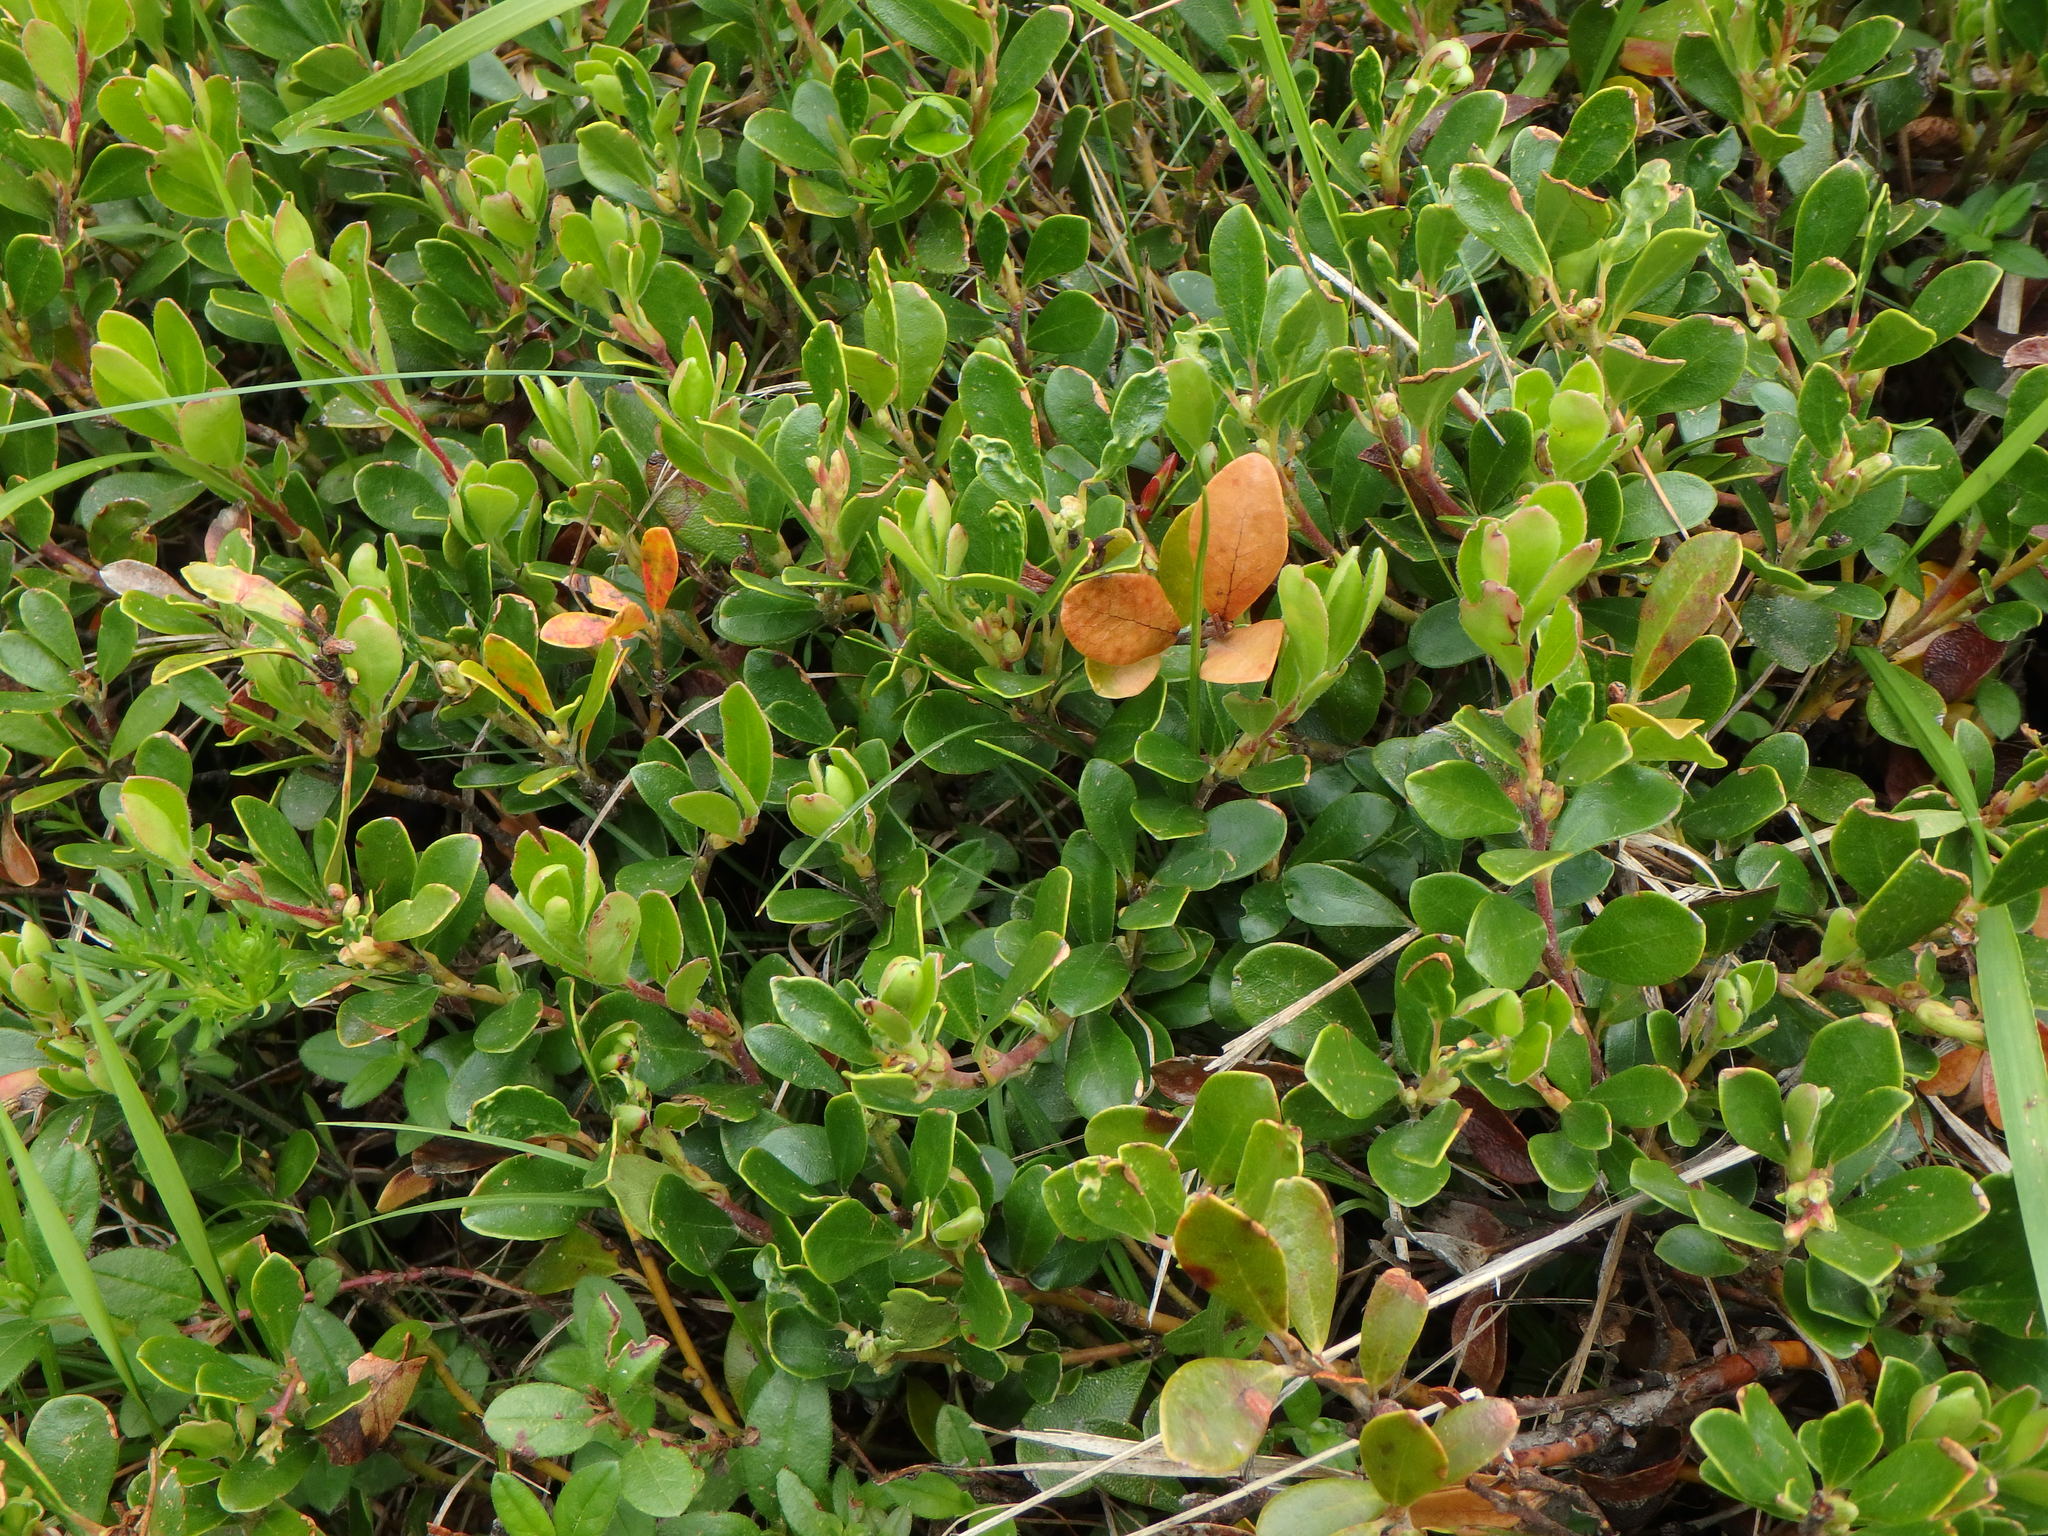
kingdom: Plantae
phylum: Tracheophyta
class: Magnoliopsida
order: Ericales
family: Ericaceae
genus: Arctostaphylos
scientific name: Arctostaphylos uva-ursi
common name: Bearberry
